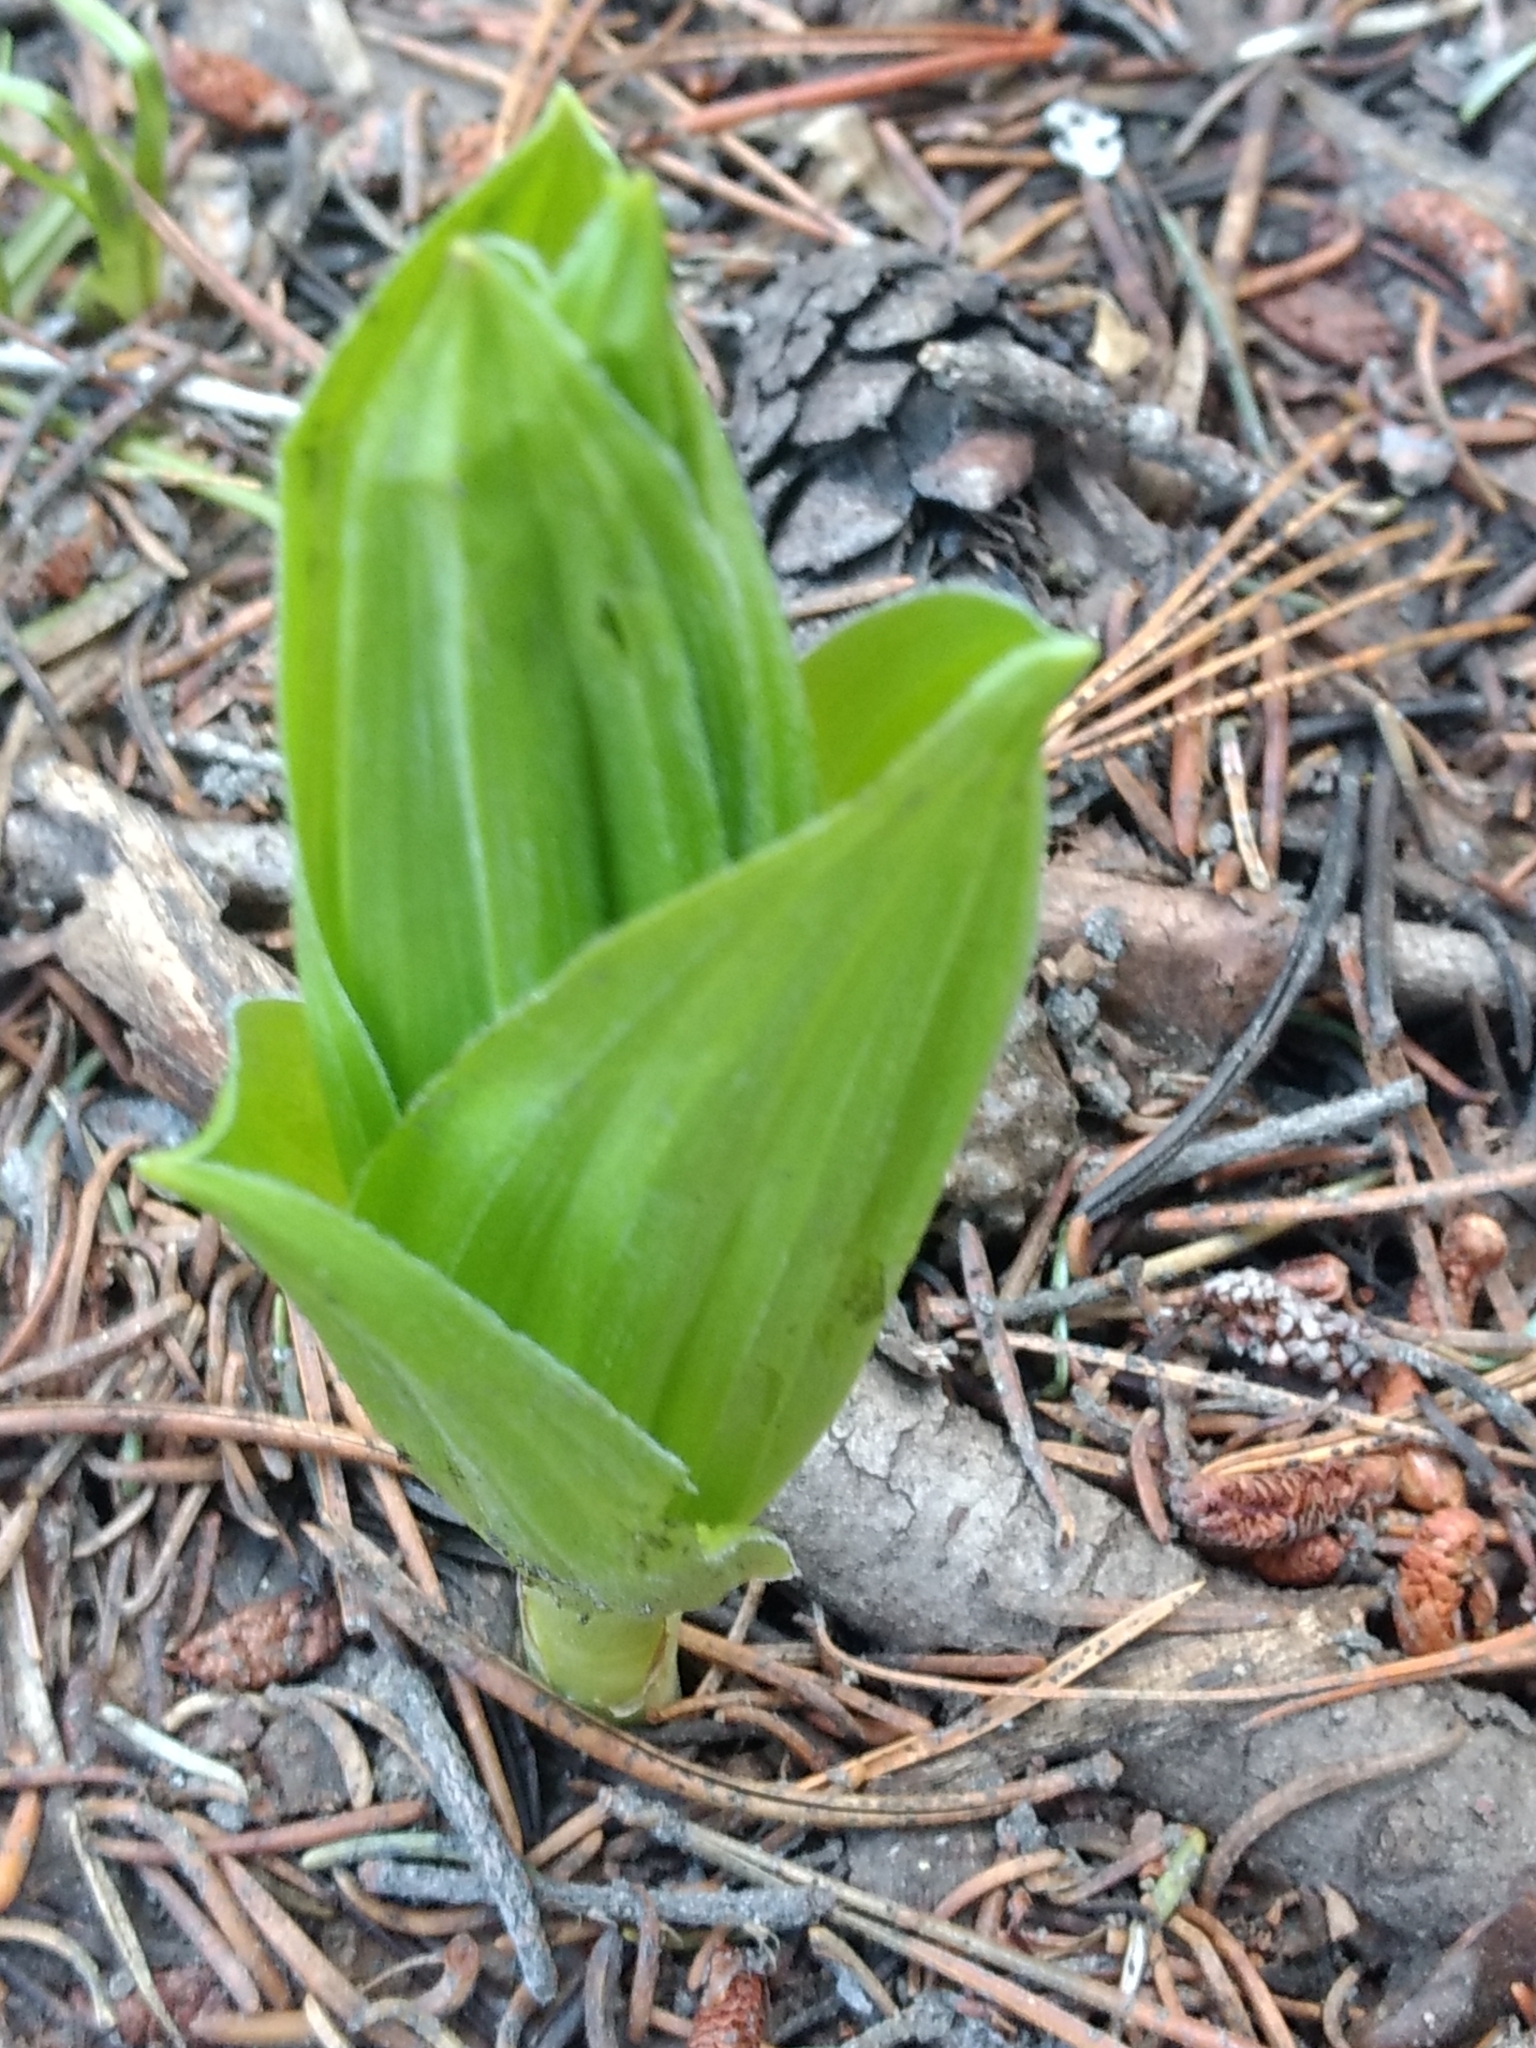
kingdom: Plantae
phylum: Tracheophyta
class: Liliopsida
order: Liliales
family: Melanthiaceae
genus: Veratrum
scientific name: Veratrum californicum
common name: California veratrum
